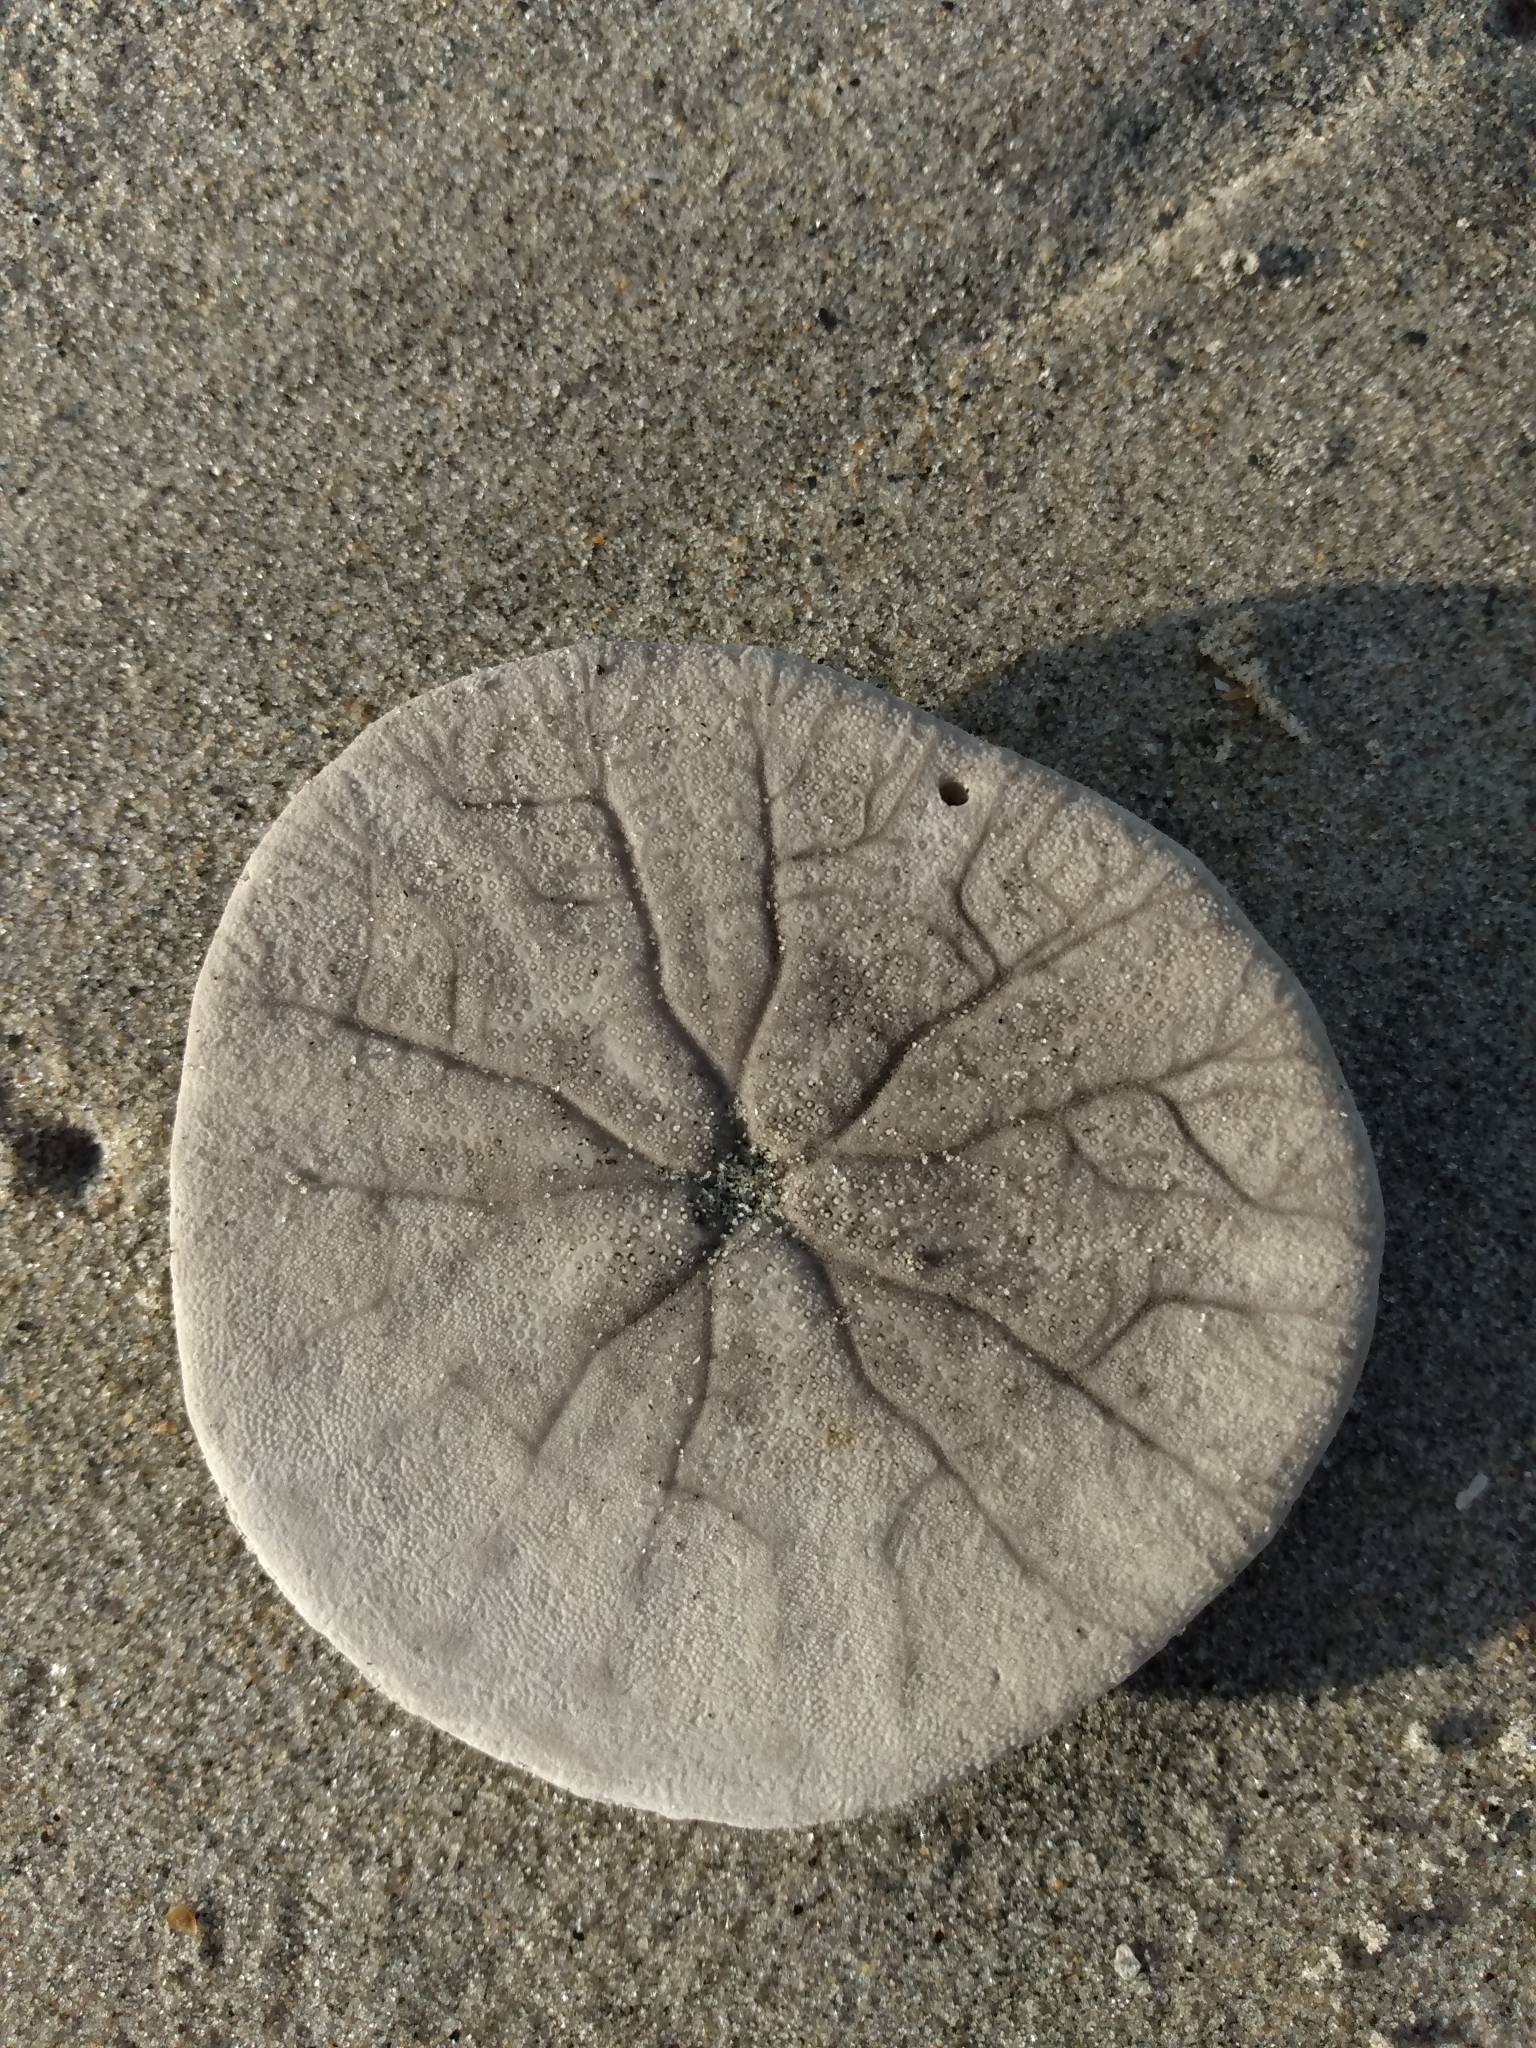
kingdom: Animalia
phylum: Echinodermata
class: Echinoidea
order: Echinolampadacea
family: Dendrasteridae
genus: Dendraster
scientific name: Dendraster excentricus
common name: Eccentric sand dollar sea urchin
